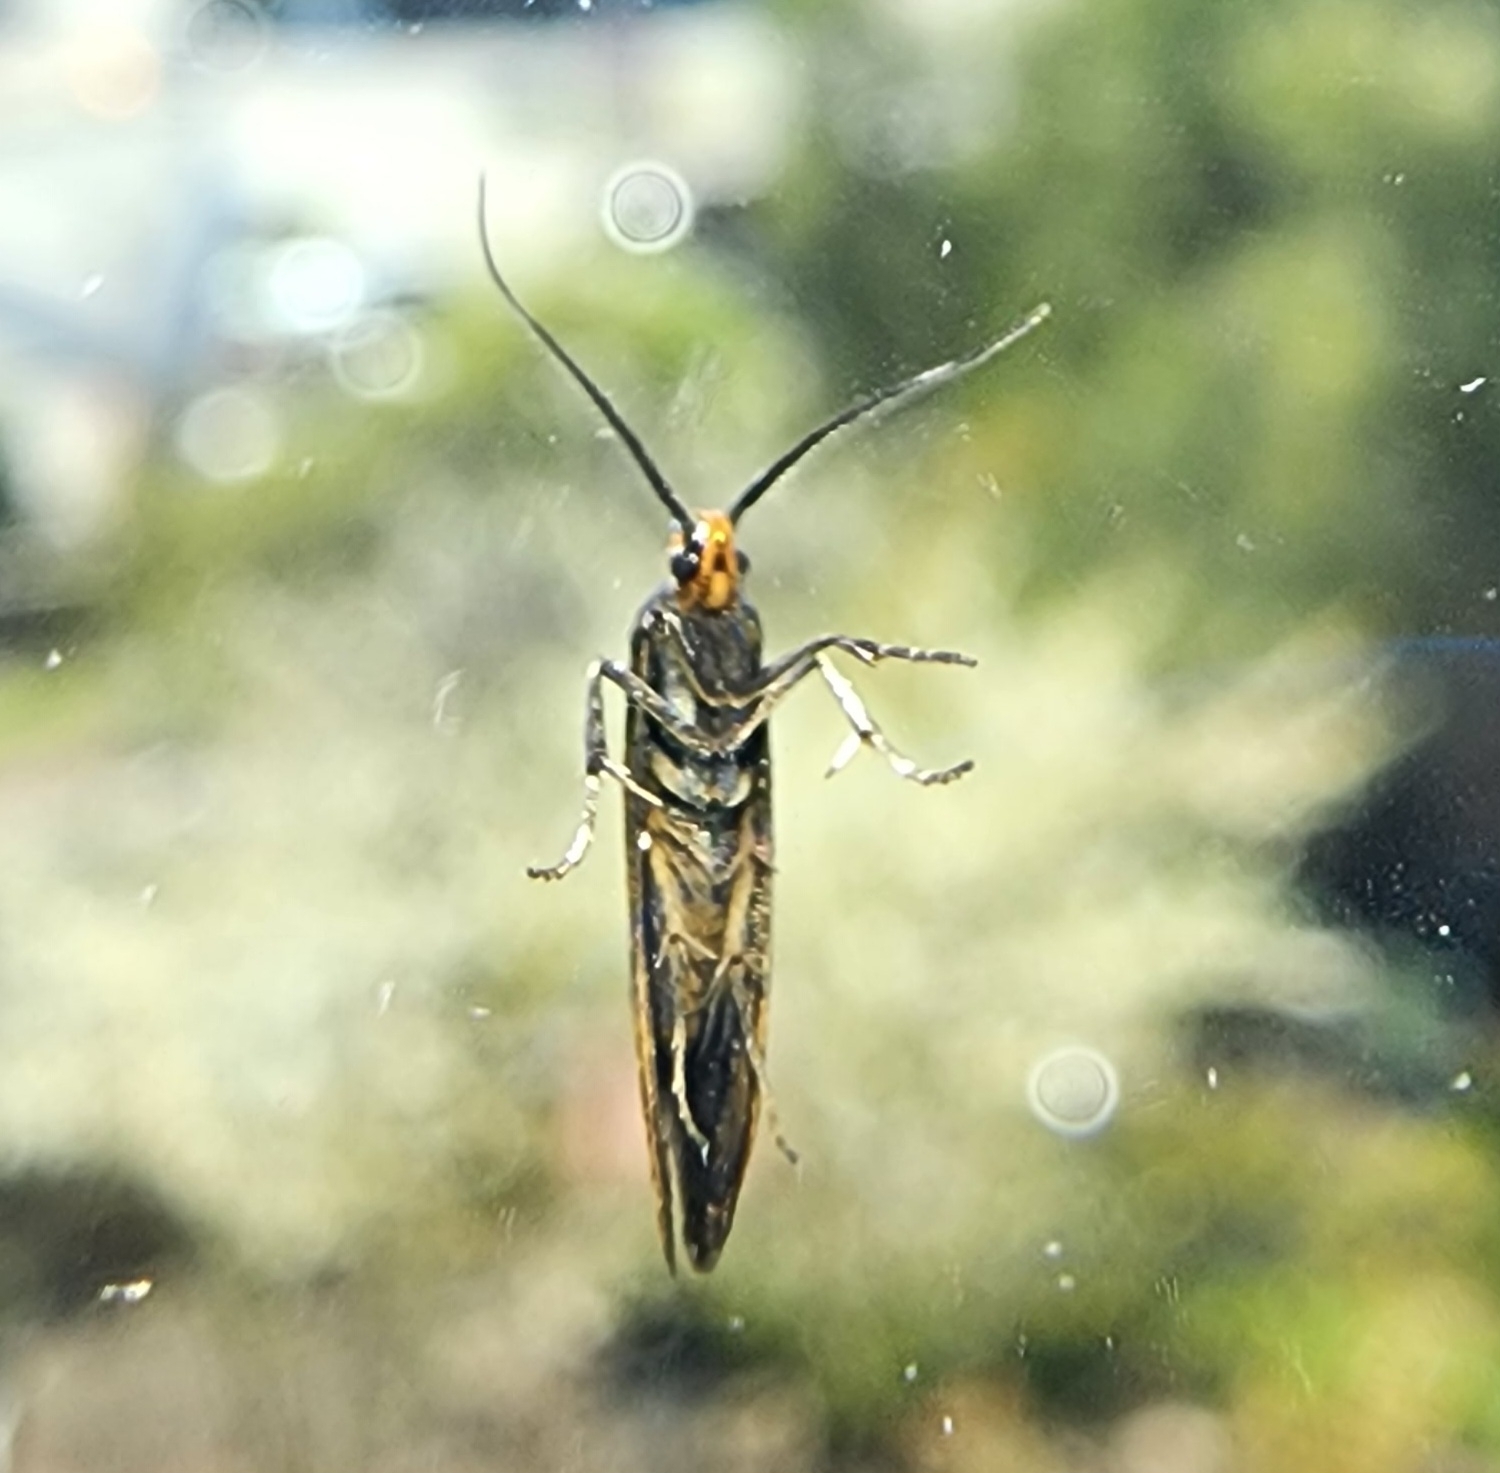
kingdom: Animalia
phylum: Arthropoda
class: Insecta
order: Lepidoptera
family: Oecophoridae
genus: Dafa
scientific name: Dafa Esperia sulphurella
